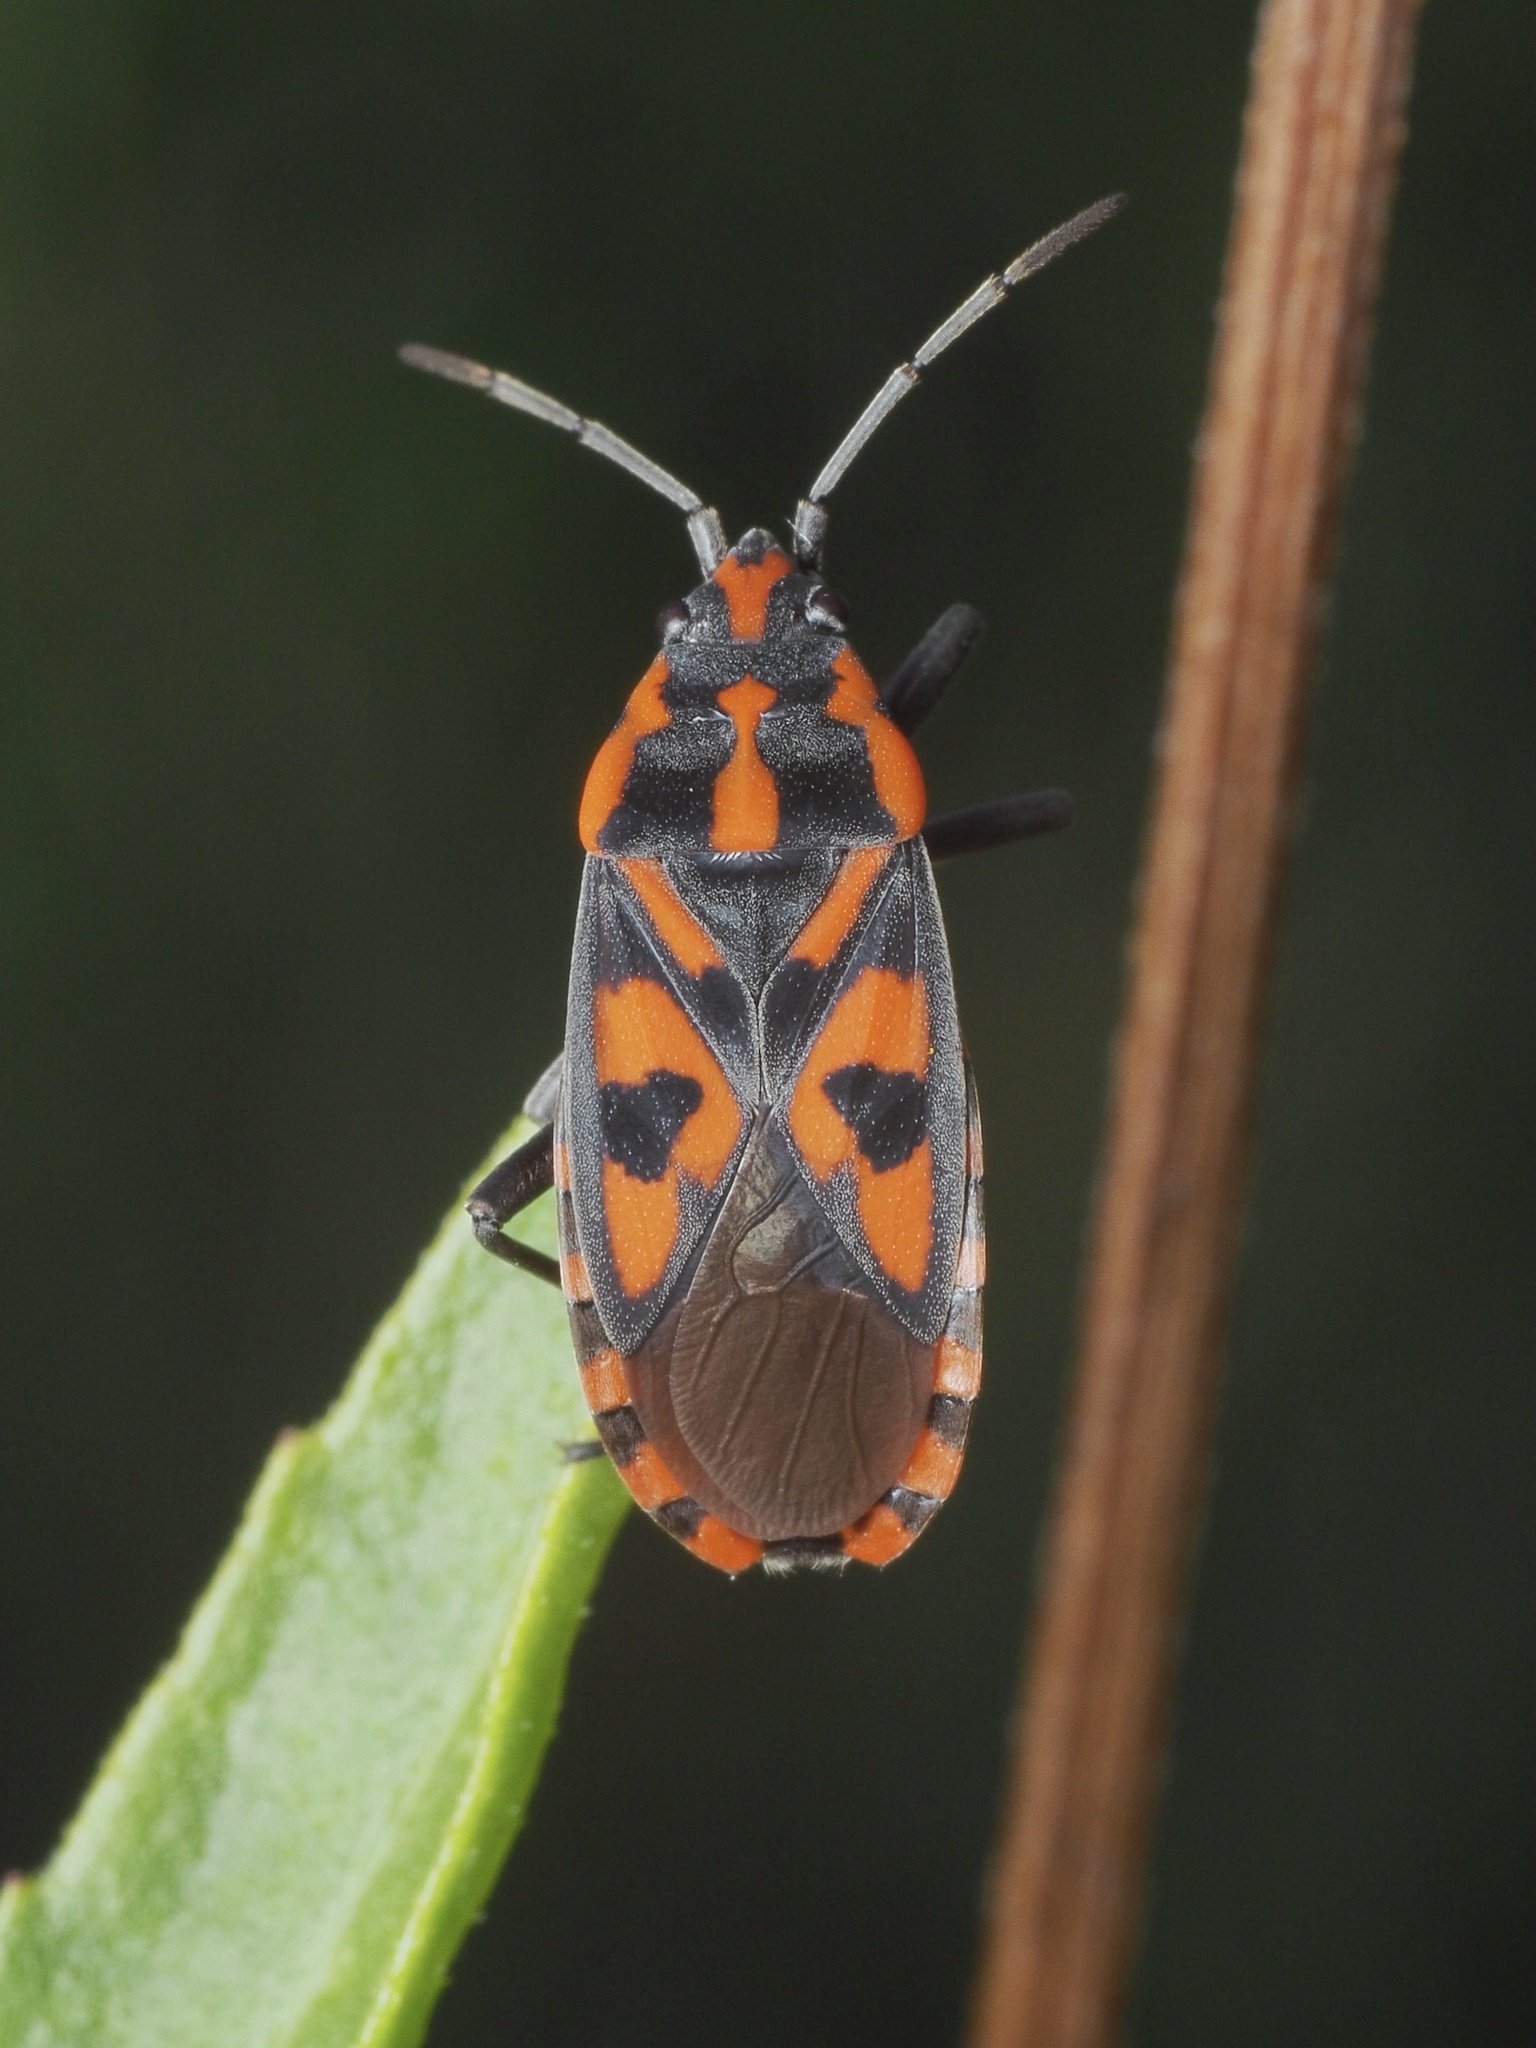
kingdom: Animalia
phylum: Arthropoda
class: Insecta
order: Hemiptera
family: Lygaeidae
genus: Spilostethus
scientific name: Spilostethus saxatilis
